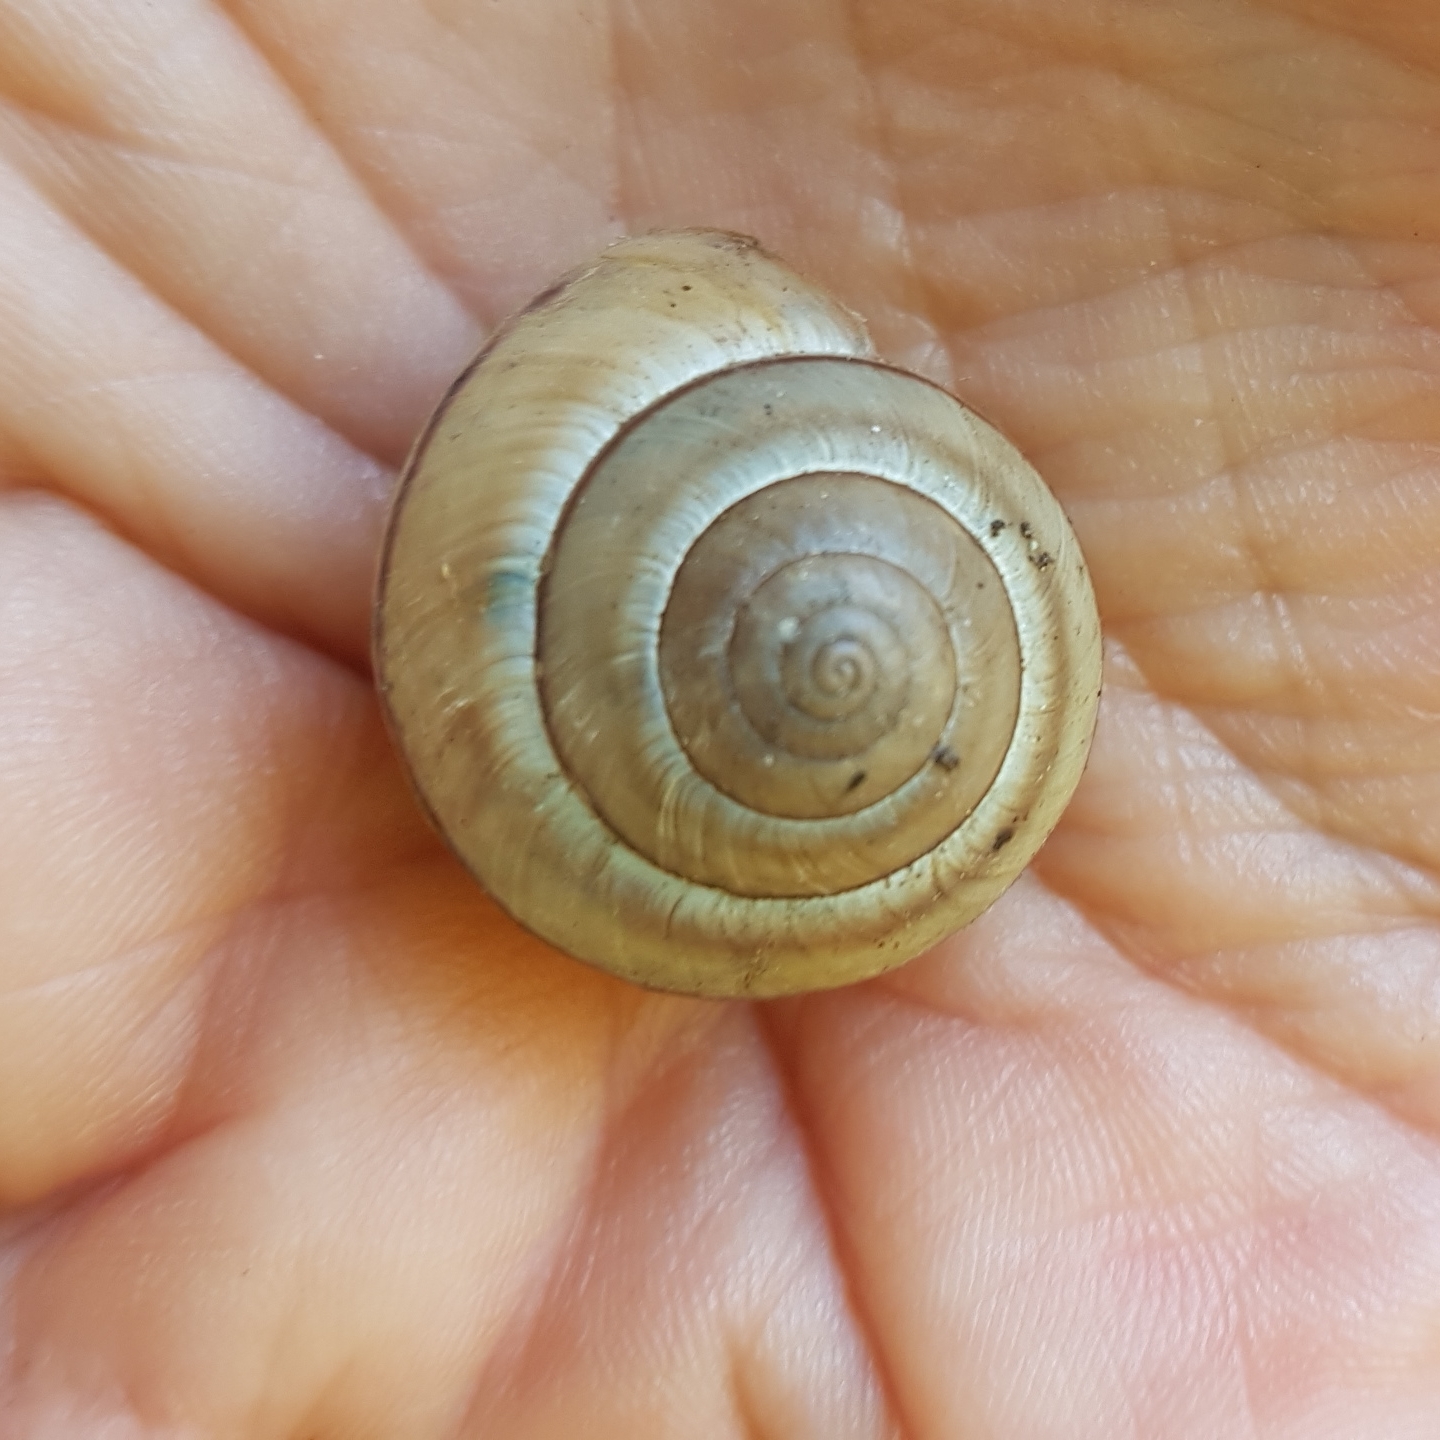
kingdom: Animalia
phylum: Mollusca
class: Gastropoda
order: Stylommatophora
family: Hygromiidae
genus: Portugala
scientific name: Portugala inchoata
